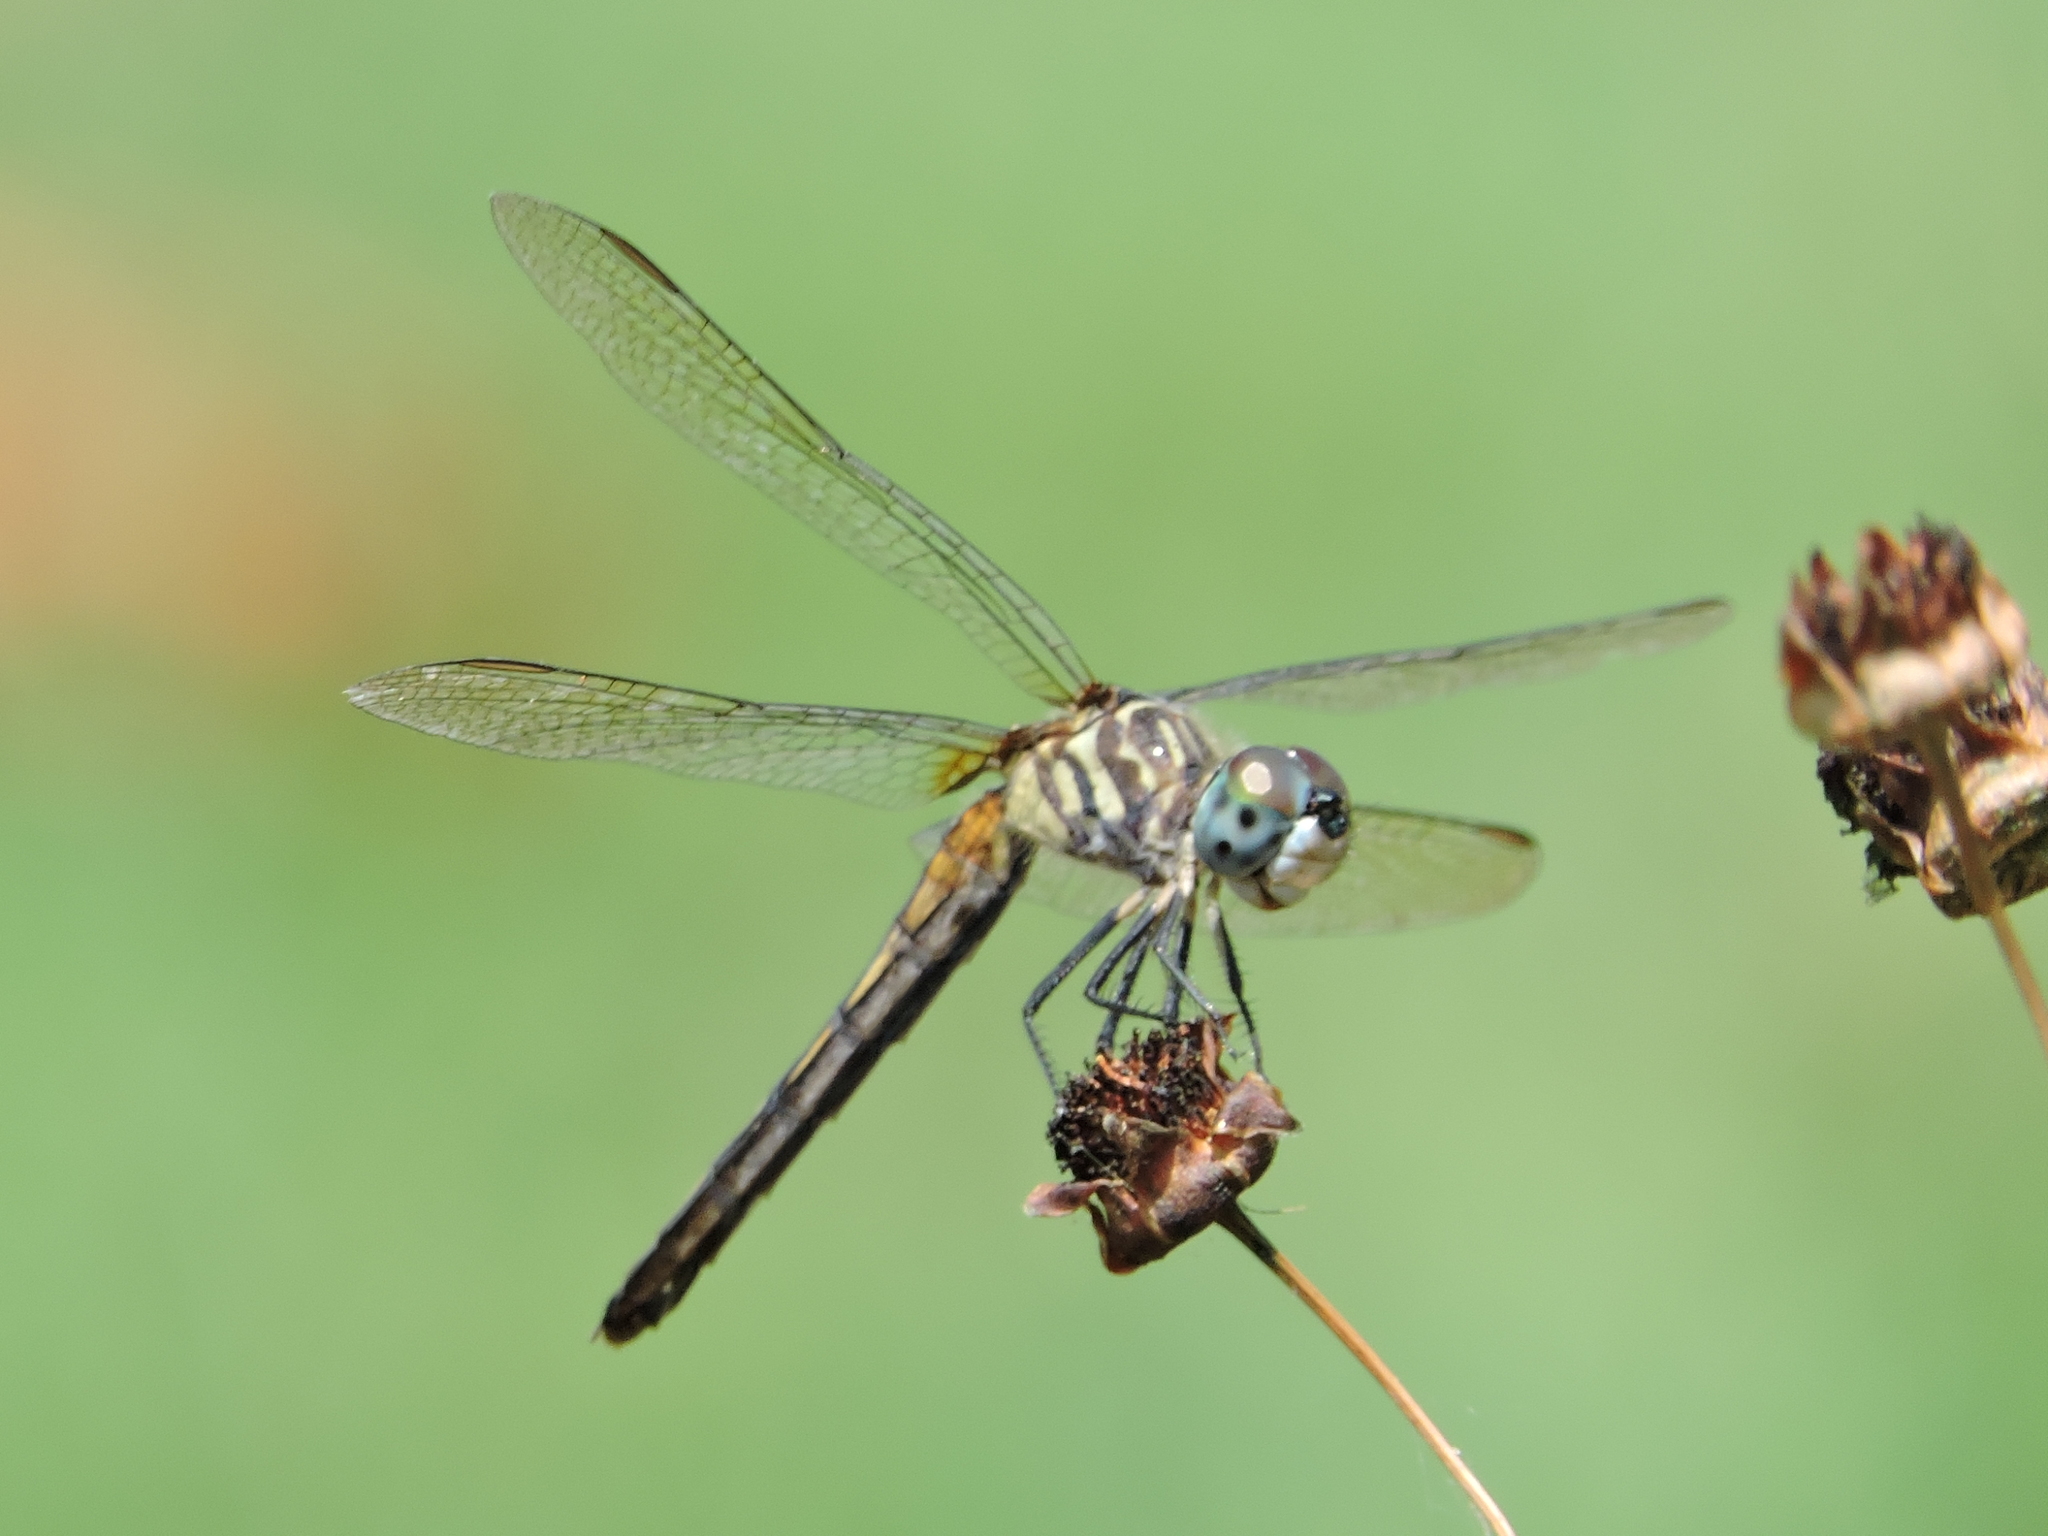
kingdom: Animalia
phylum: Arthropoda
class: Insecta
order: Odonata
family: Libellulidae
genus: Pachydiplax
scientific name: Pachydiplax longipennis
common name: Blue dasher
